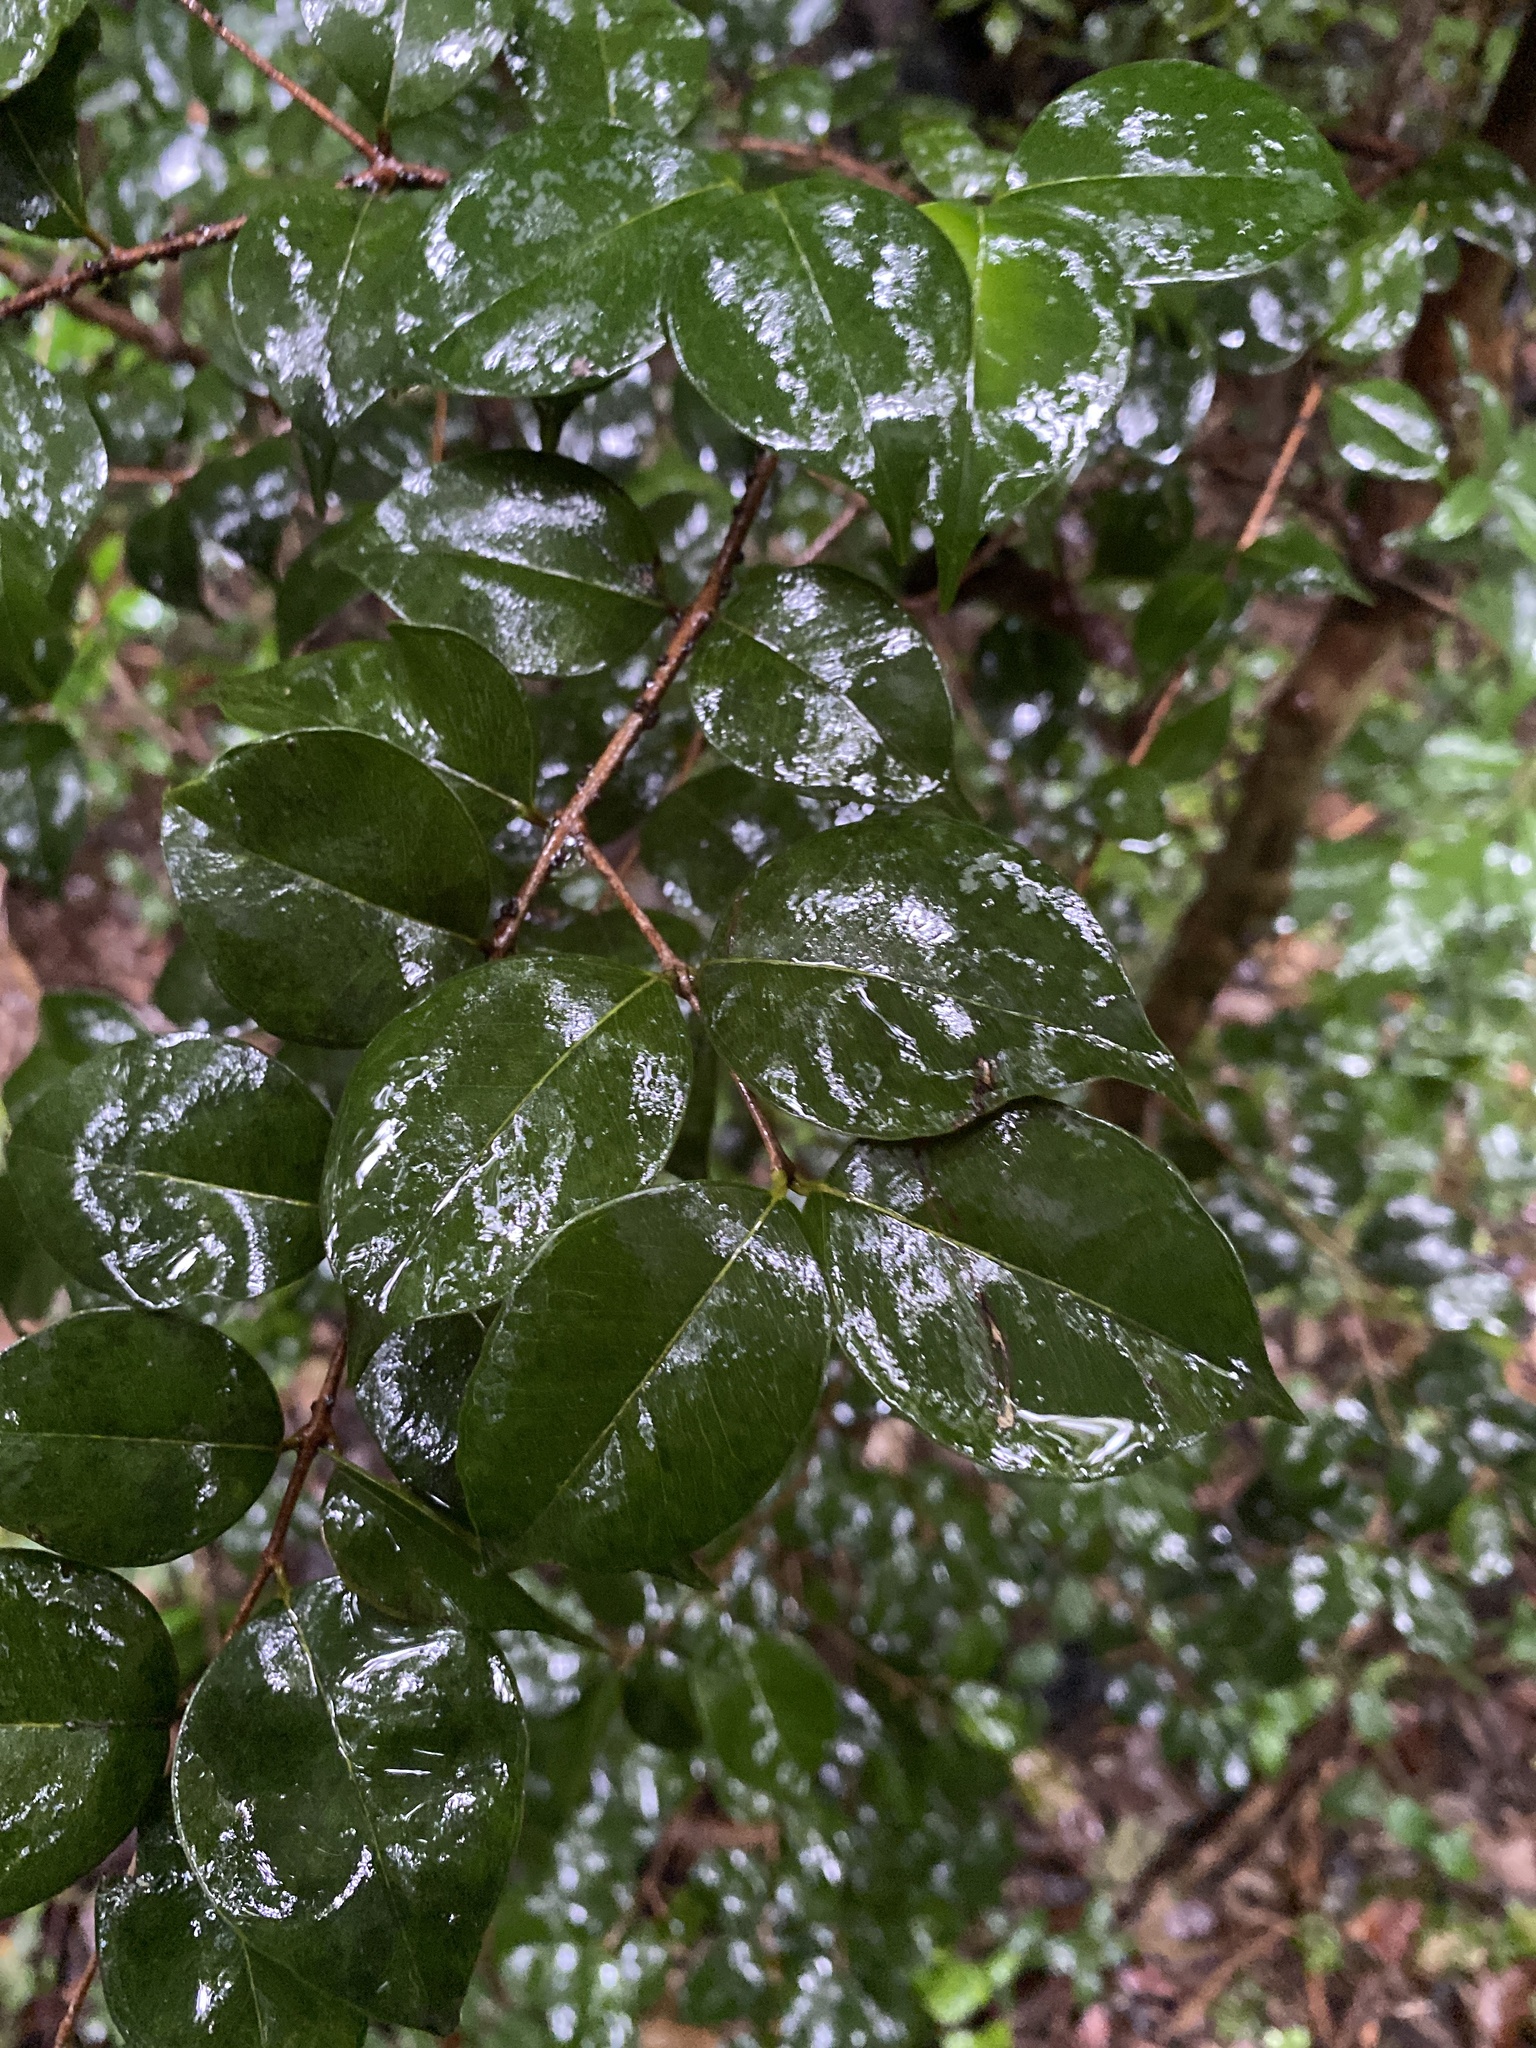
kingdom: Plantae
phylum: Tracheophyta
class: Magnoliopsida
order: Myrtales
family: Myrtaceae
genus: Eugenia
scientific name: Eugenia confusa
